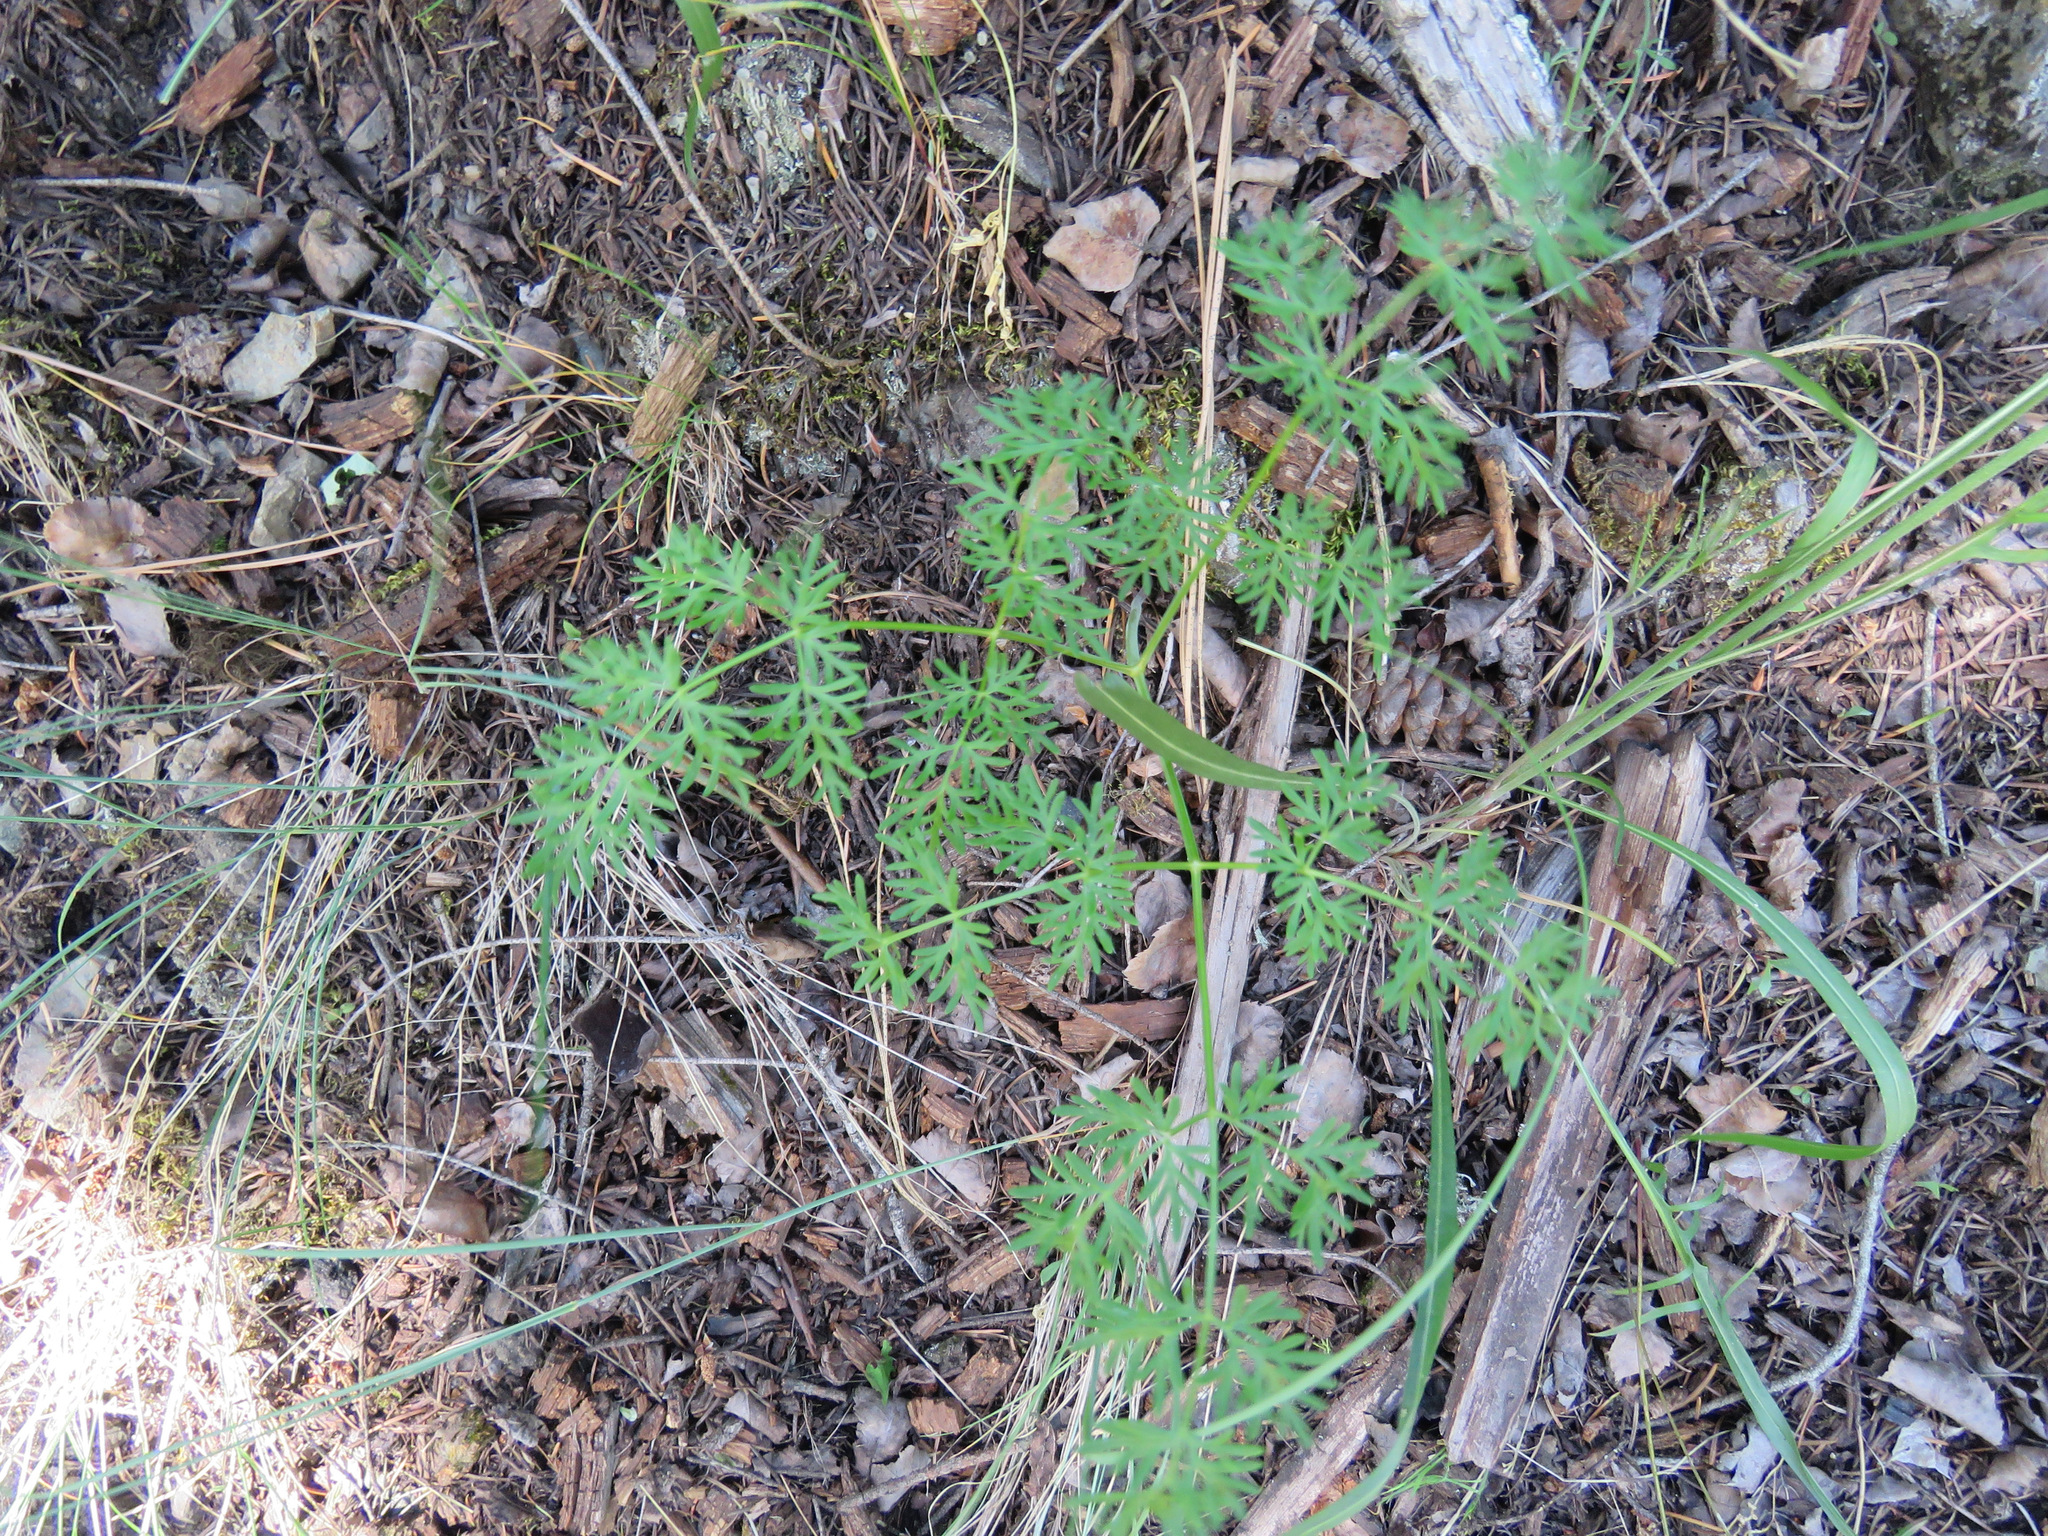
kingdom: Plantae
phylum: Tracheophyta
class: Magnoliopsida
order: Apiales
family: Apiaceae
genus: Lomatium
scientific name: Lomatium multifidum
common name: Carrot-leaved biscuitroot
